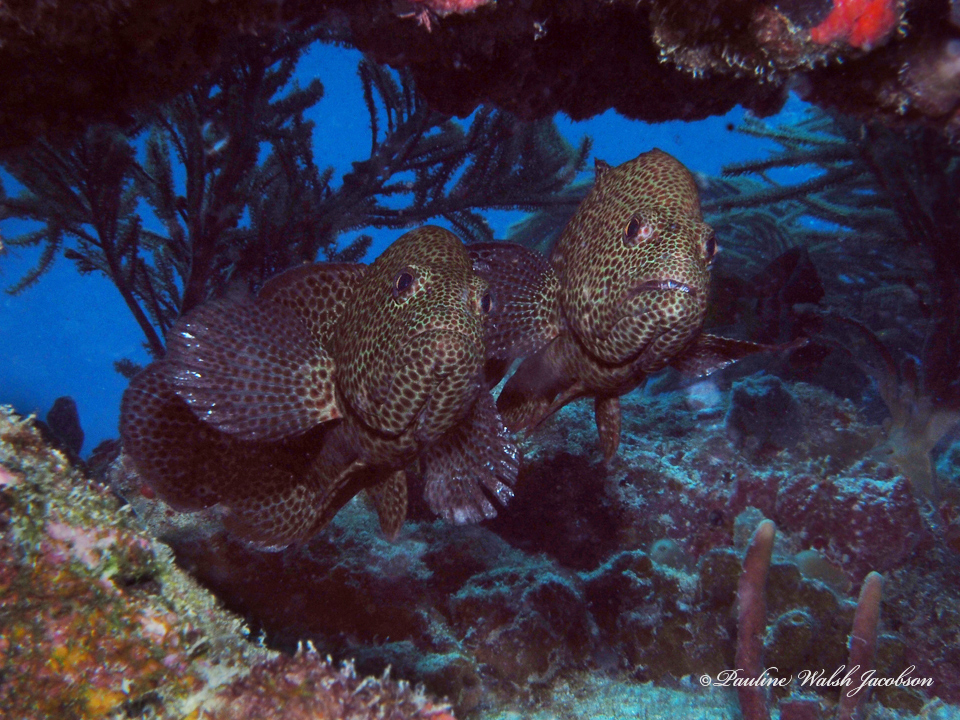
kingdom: Animalia
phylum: Chordata
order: Perciformes
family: Serranidae
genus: Cephalopholis
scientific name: Cephalopholis cruentata
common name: Graysby
